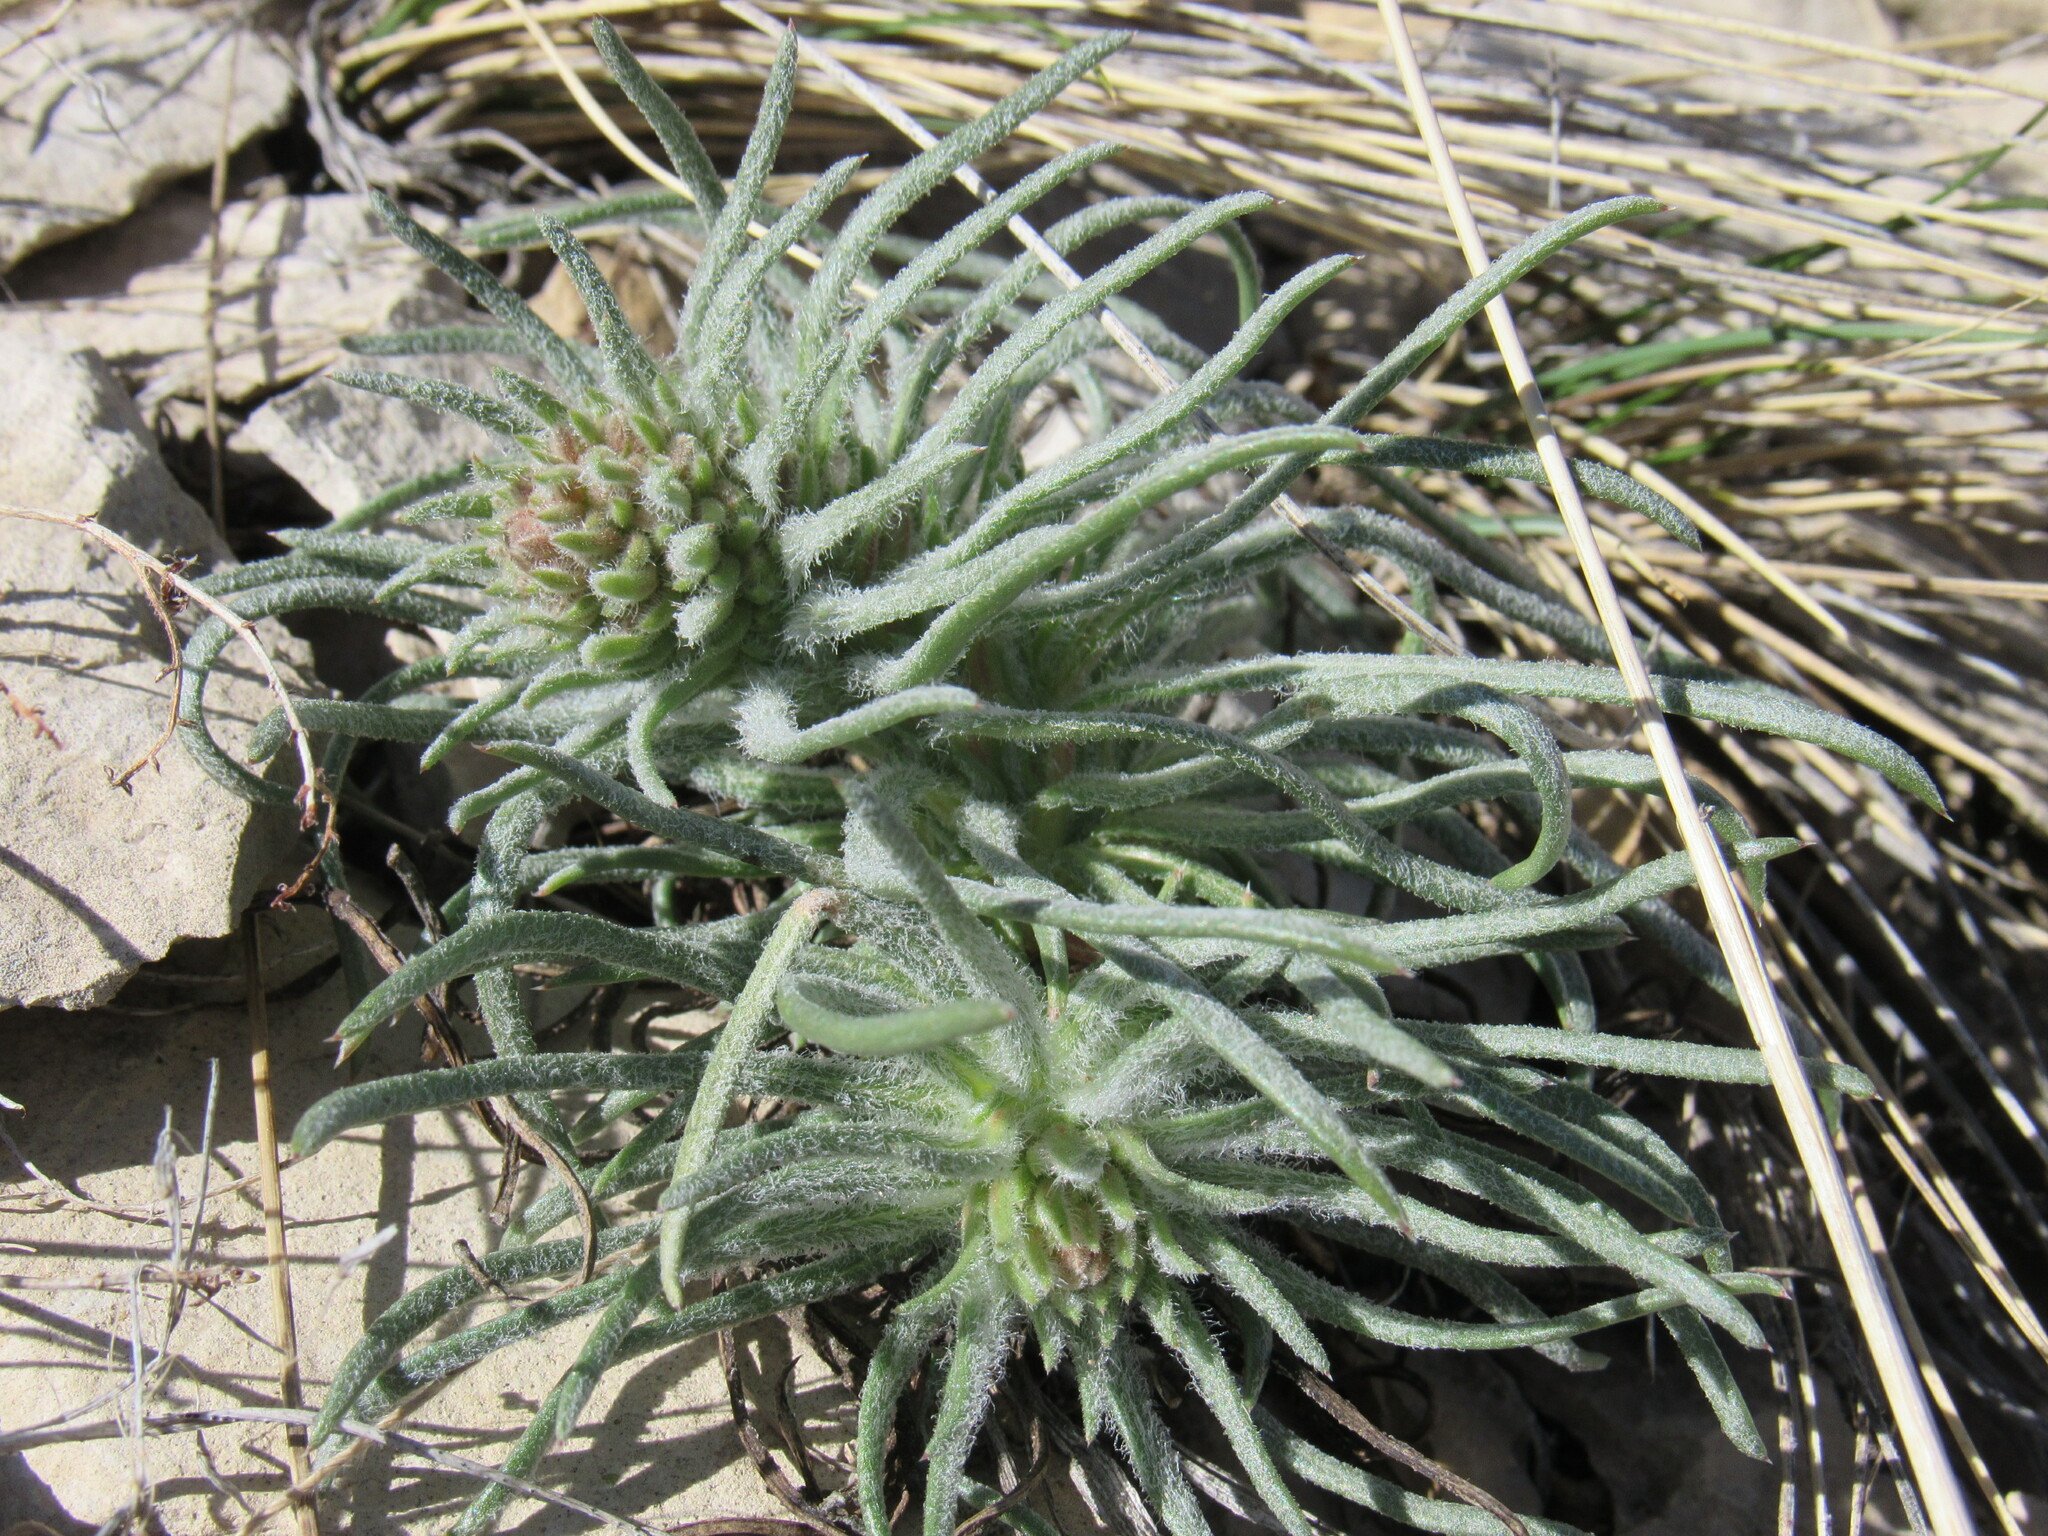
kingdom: Plantae
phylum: Tracheophyta
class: Magnoliopsida
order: Ericales
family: Polemoniaceae
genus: Ipomopsis
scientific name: Ipomopsis spicata
